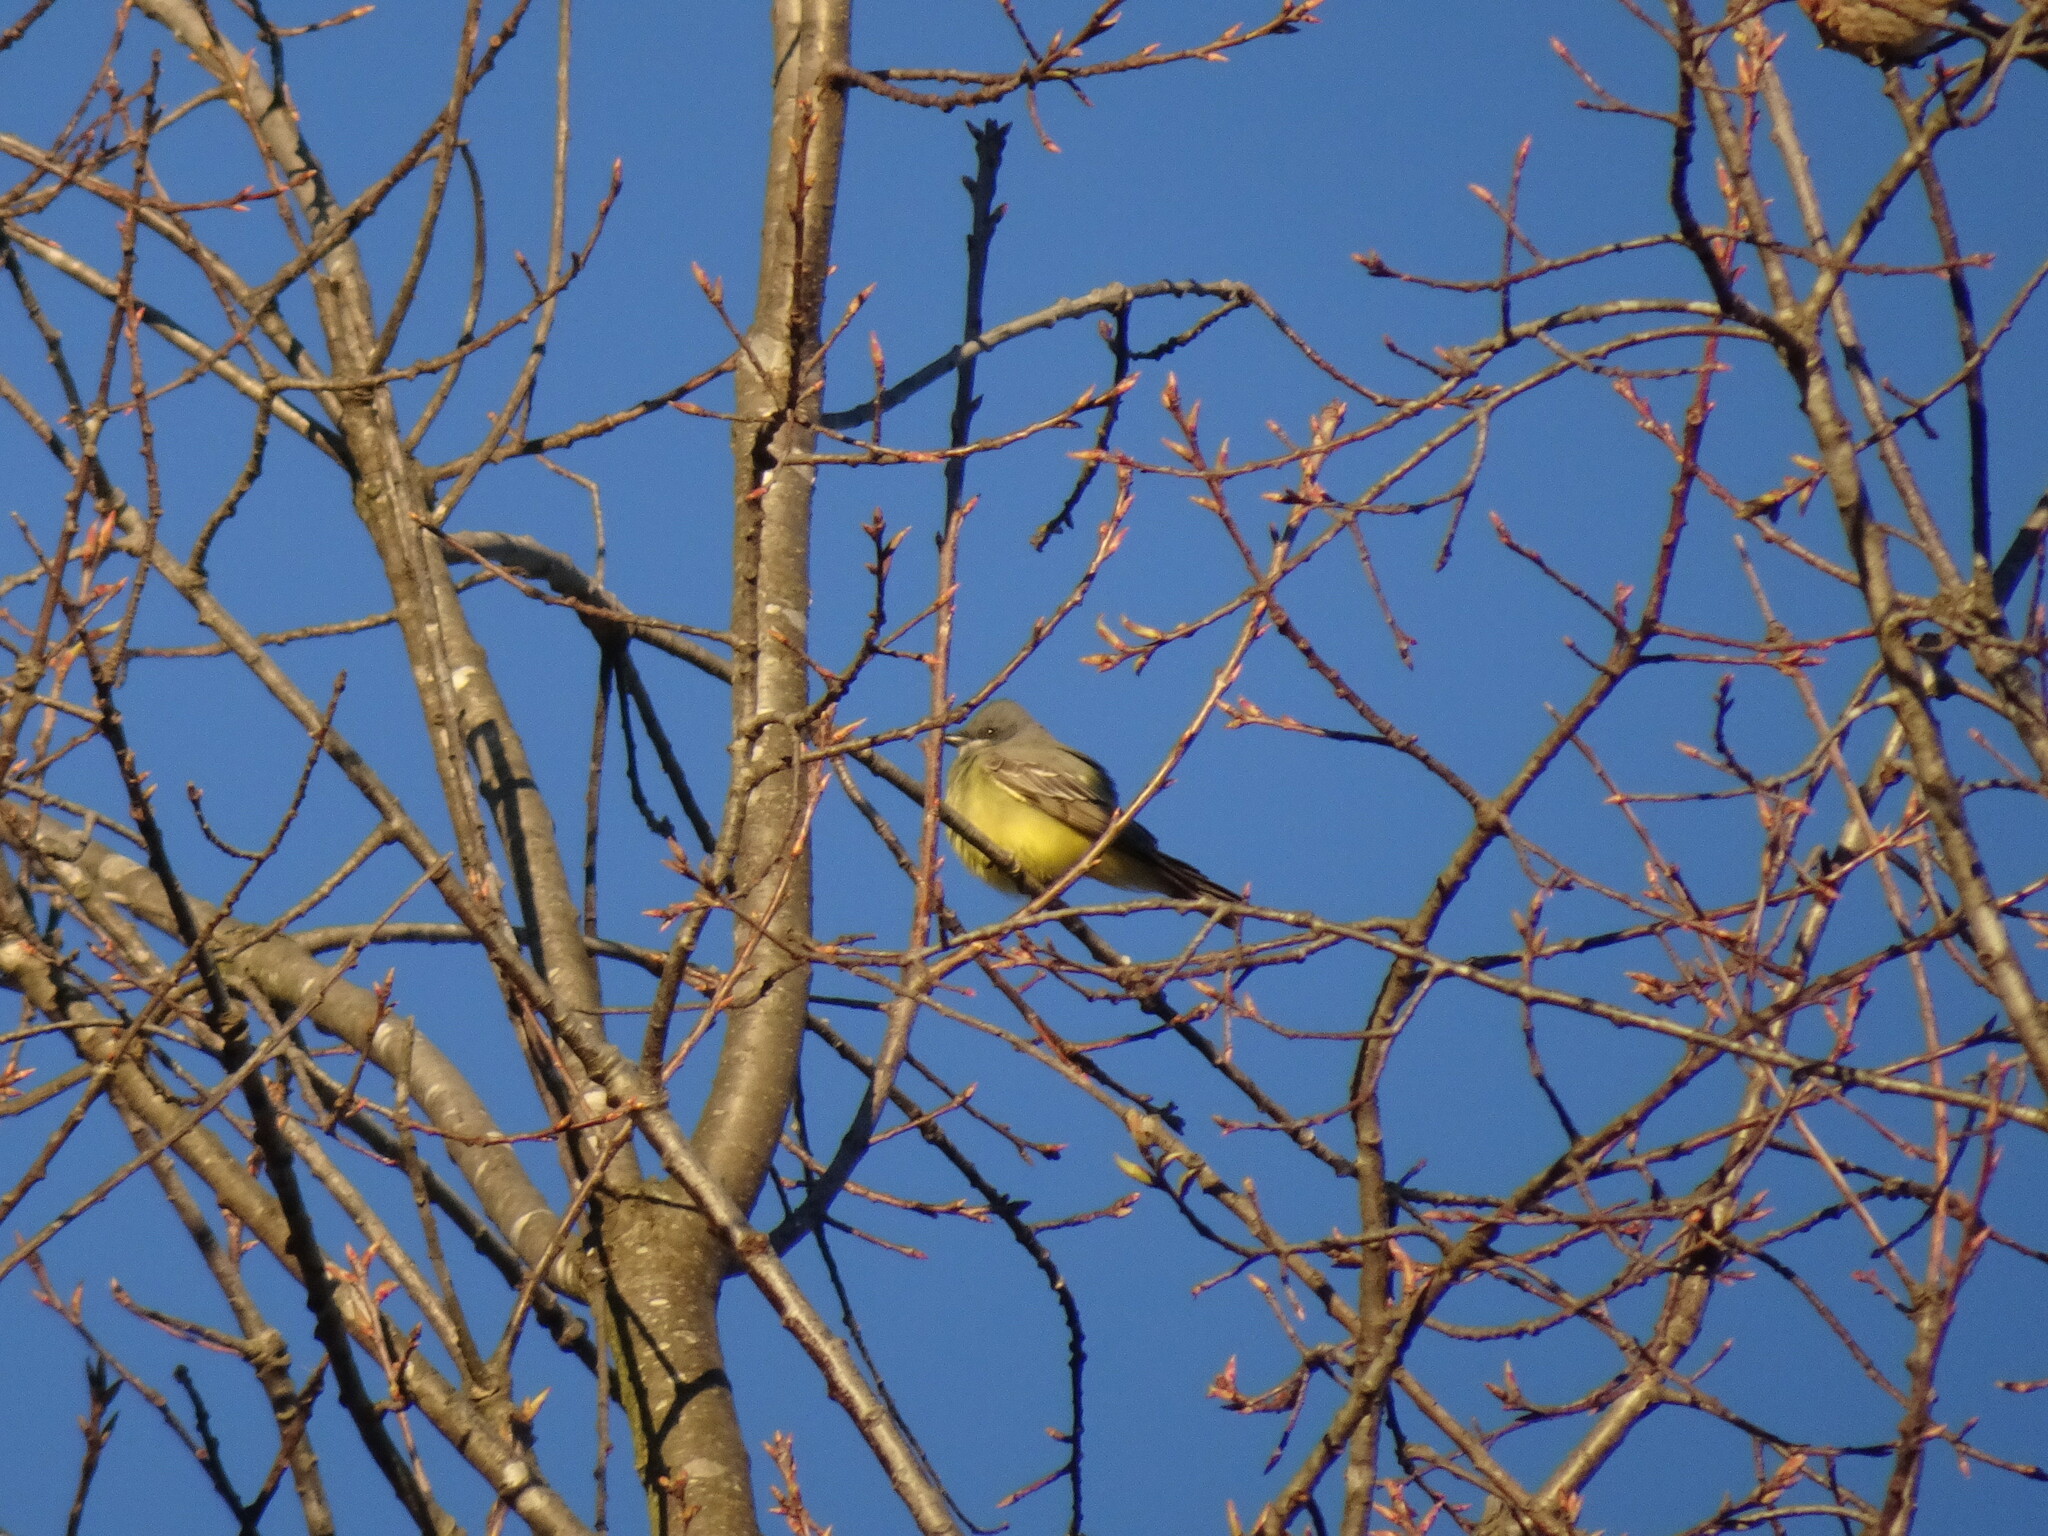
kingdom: Animalia
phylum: Chordata
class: Aves
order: Passeriformes
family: Tyrannidae
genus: Tyrannus
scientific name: Tyrannus vociferans
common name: Cassin's kingbird
